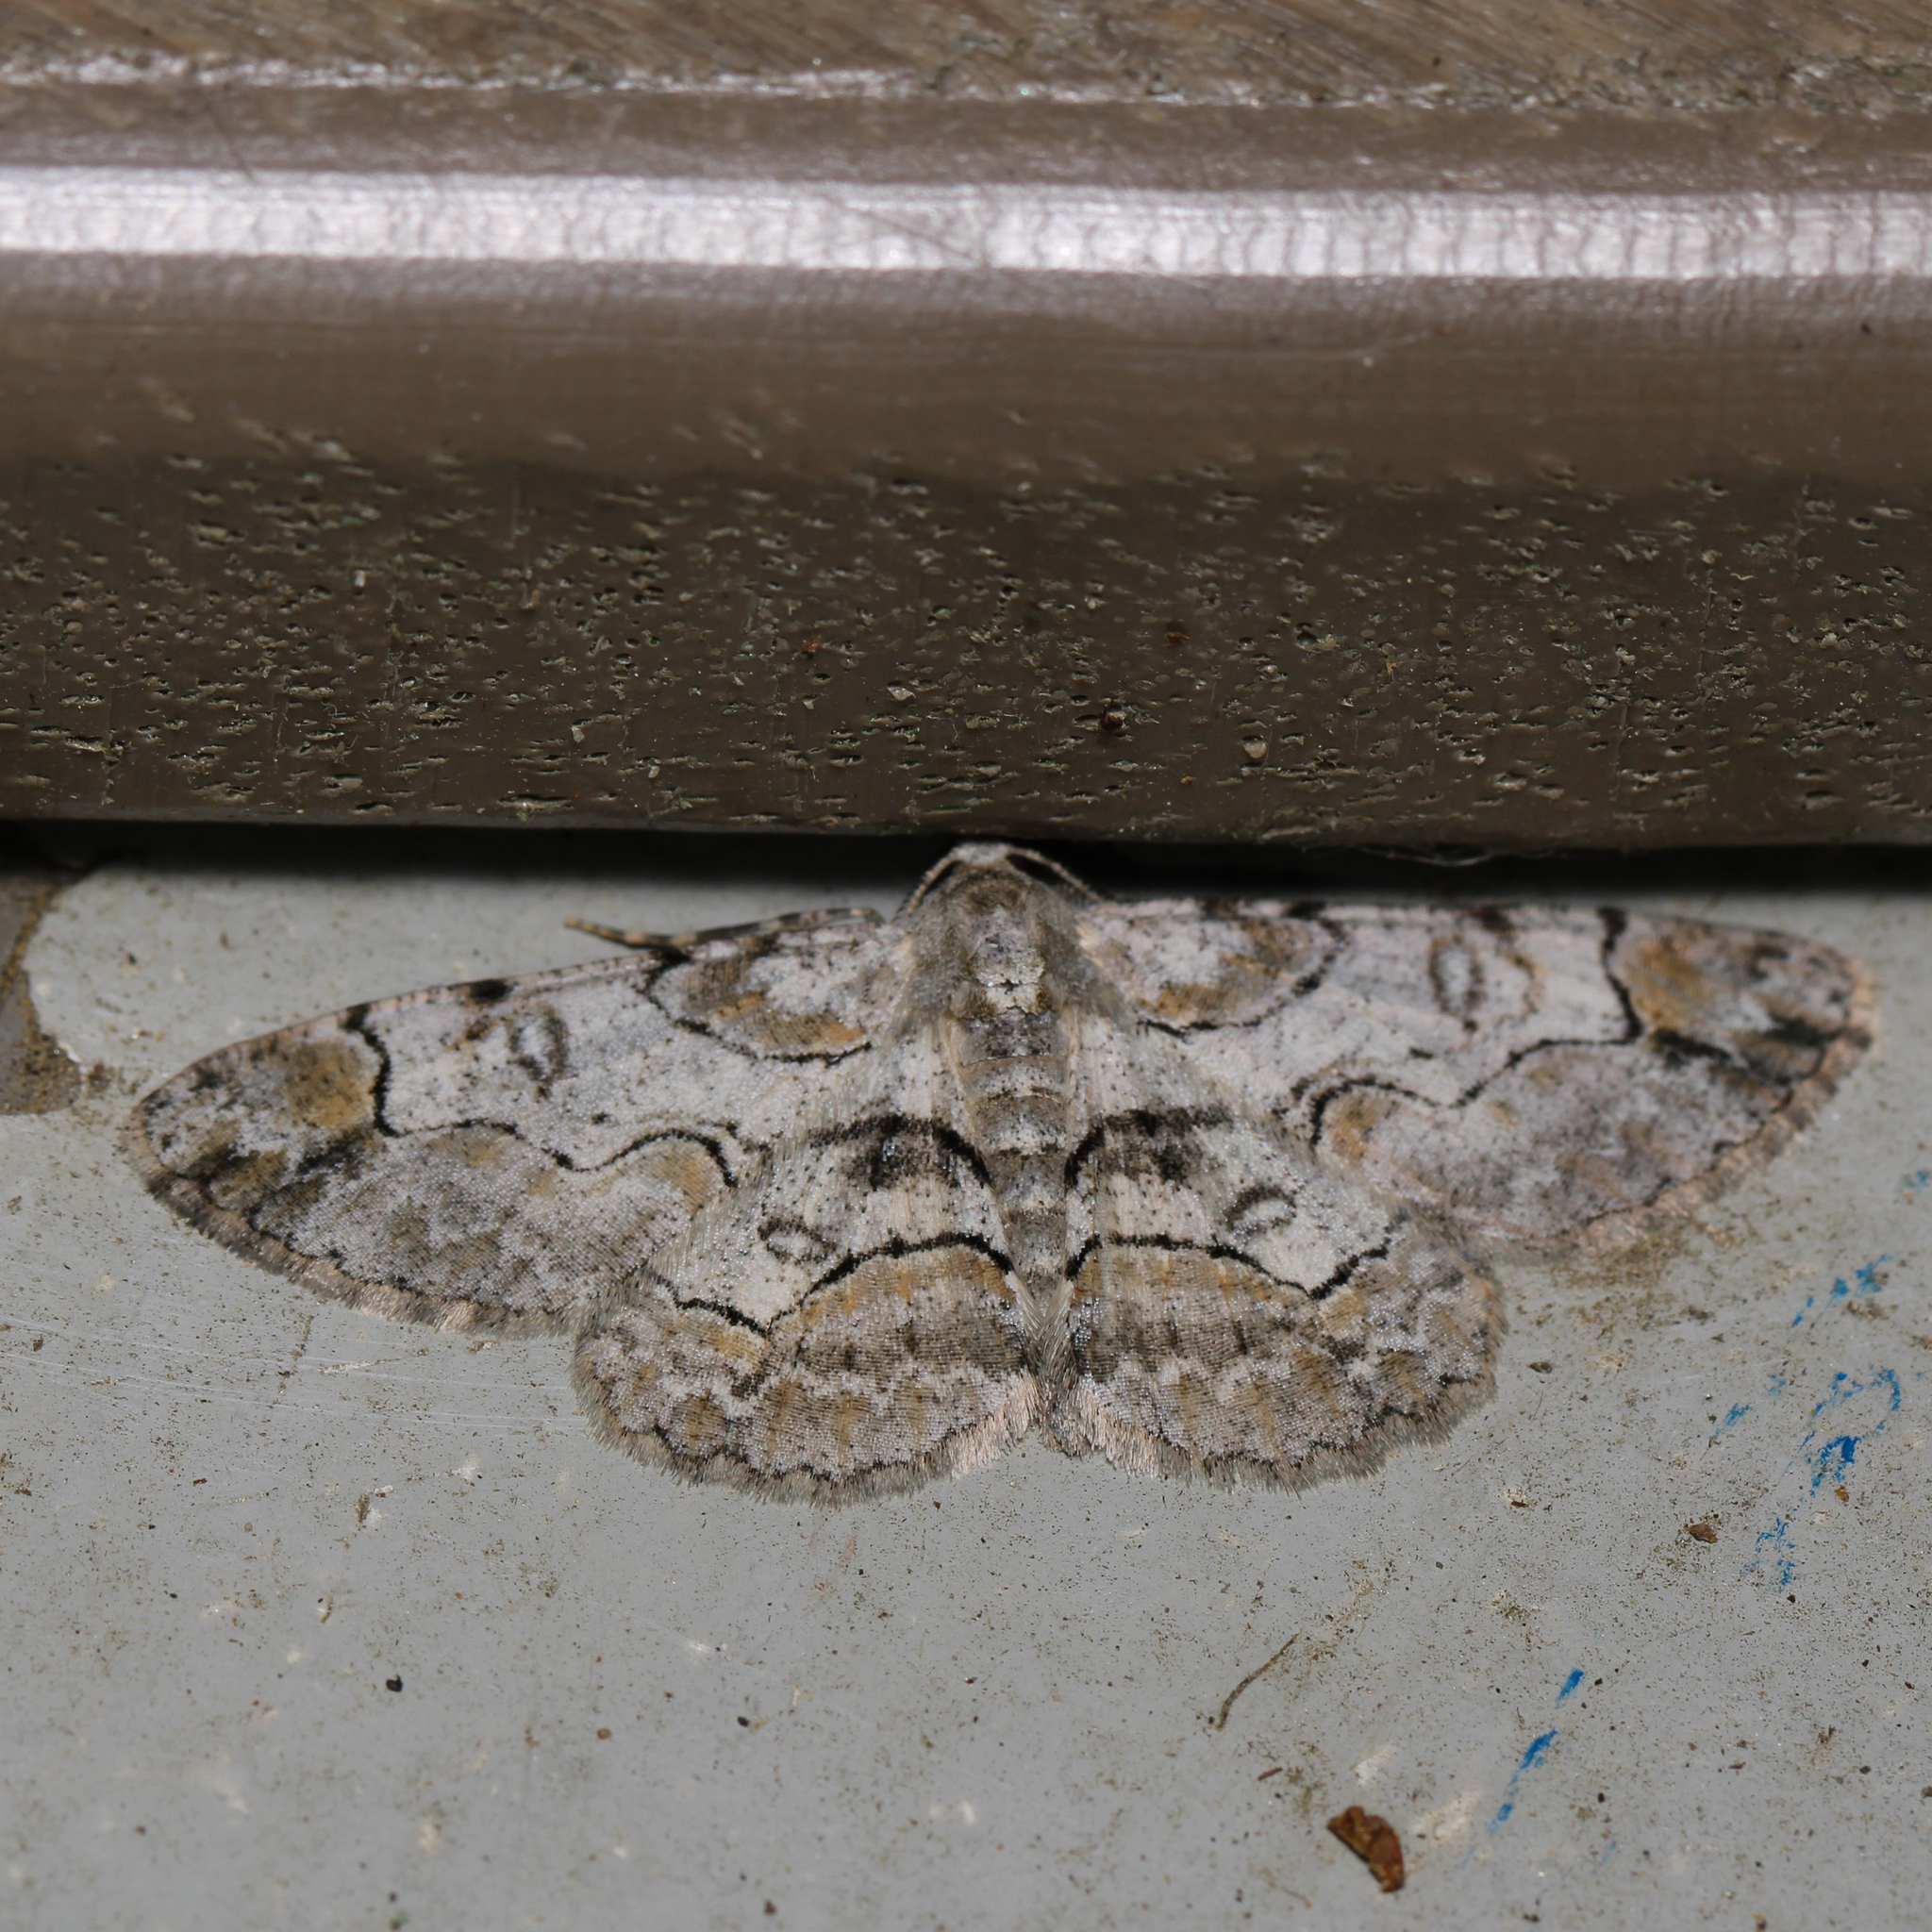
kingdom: Animalia
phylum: Arthropoda
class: Insecta
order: Lepidoptera
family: Geometridae
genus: Iridopsis
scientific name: Iridopsis larvaria
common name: Bent-line gray
